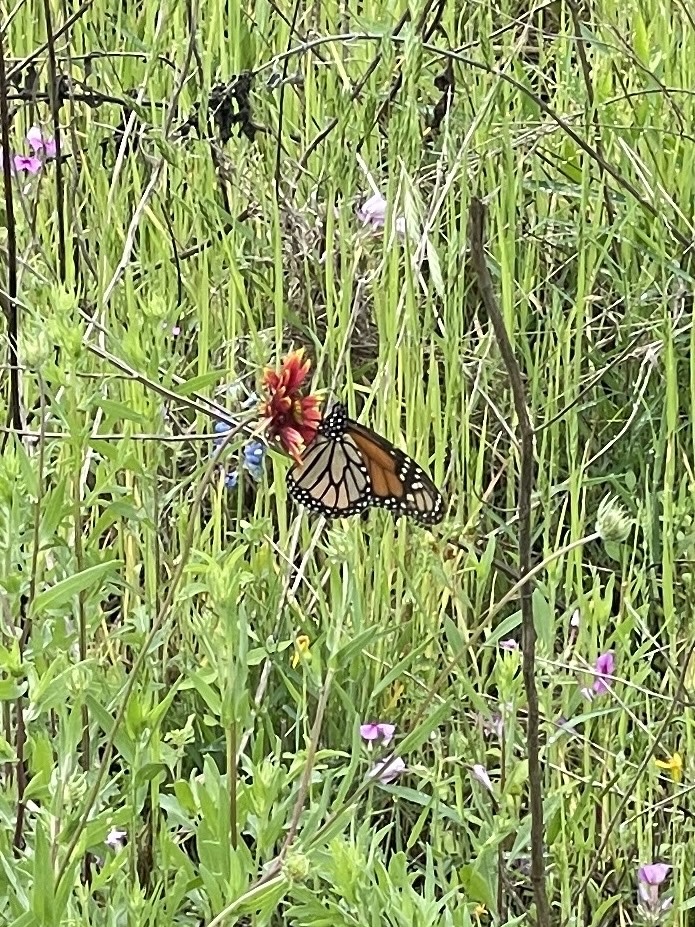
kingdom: Animalia
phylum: Arthropoda
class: Insecta
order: Lepidoptera
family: Nymphalidae
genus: Danaus
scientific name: Danaus plexippus
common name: Monarch
